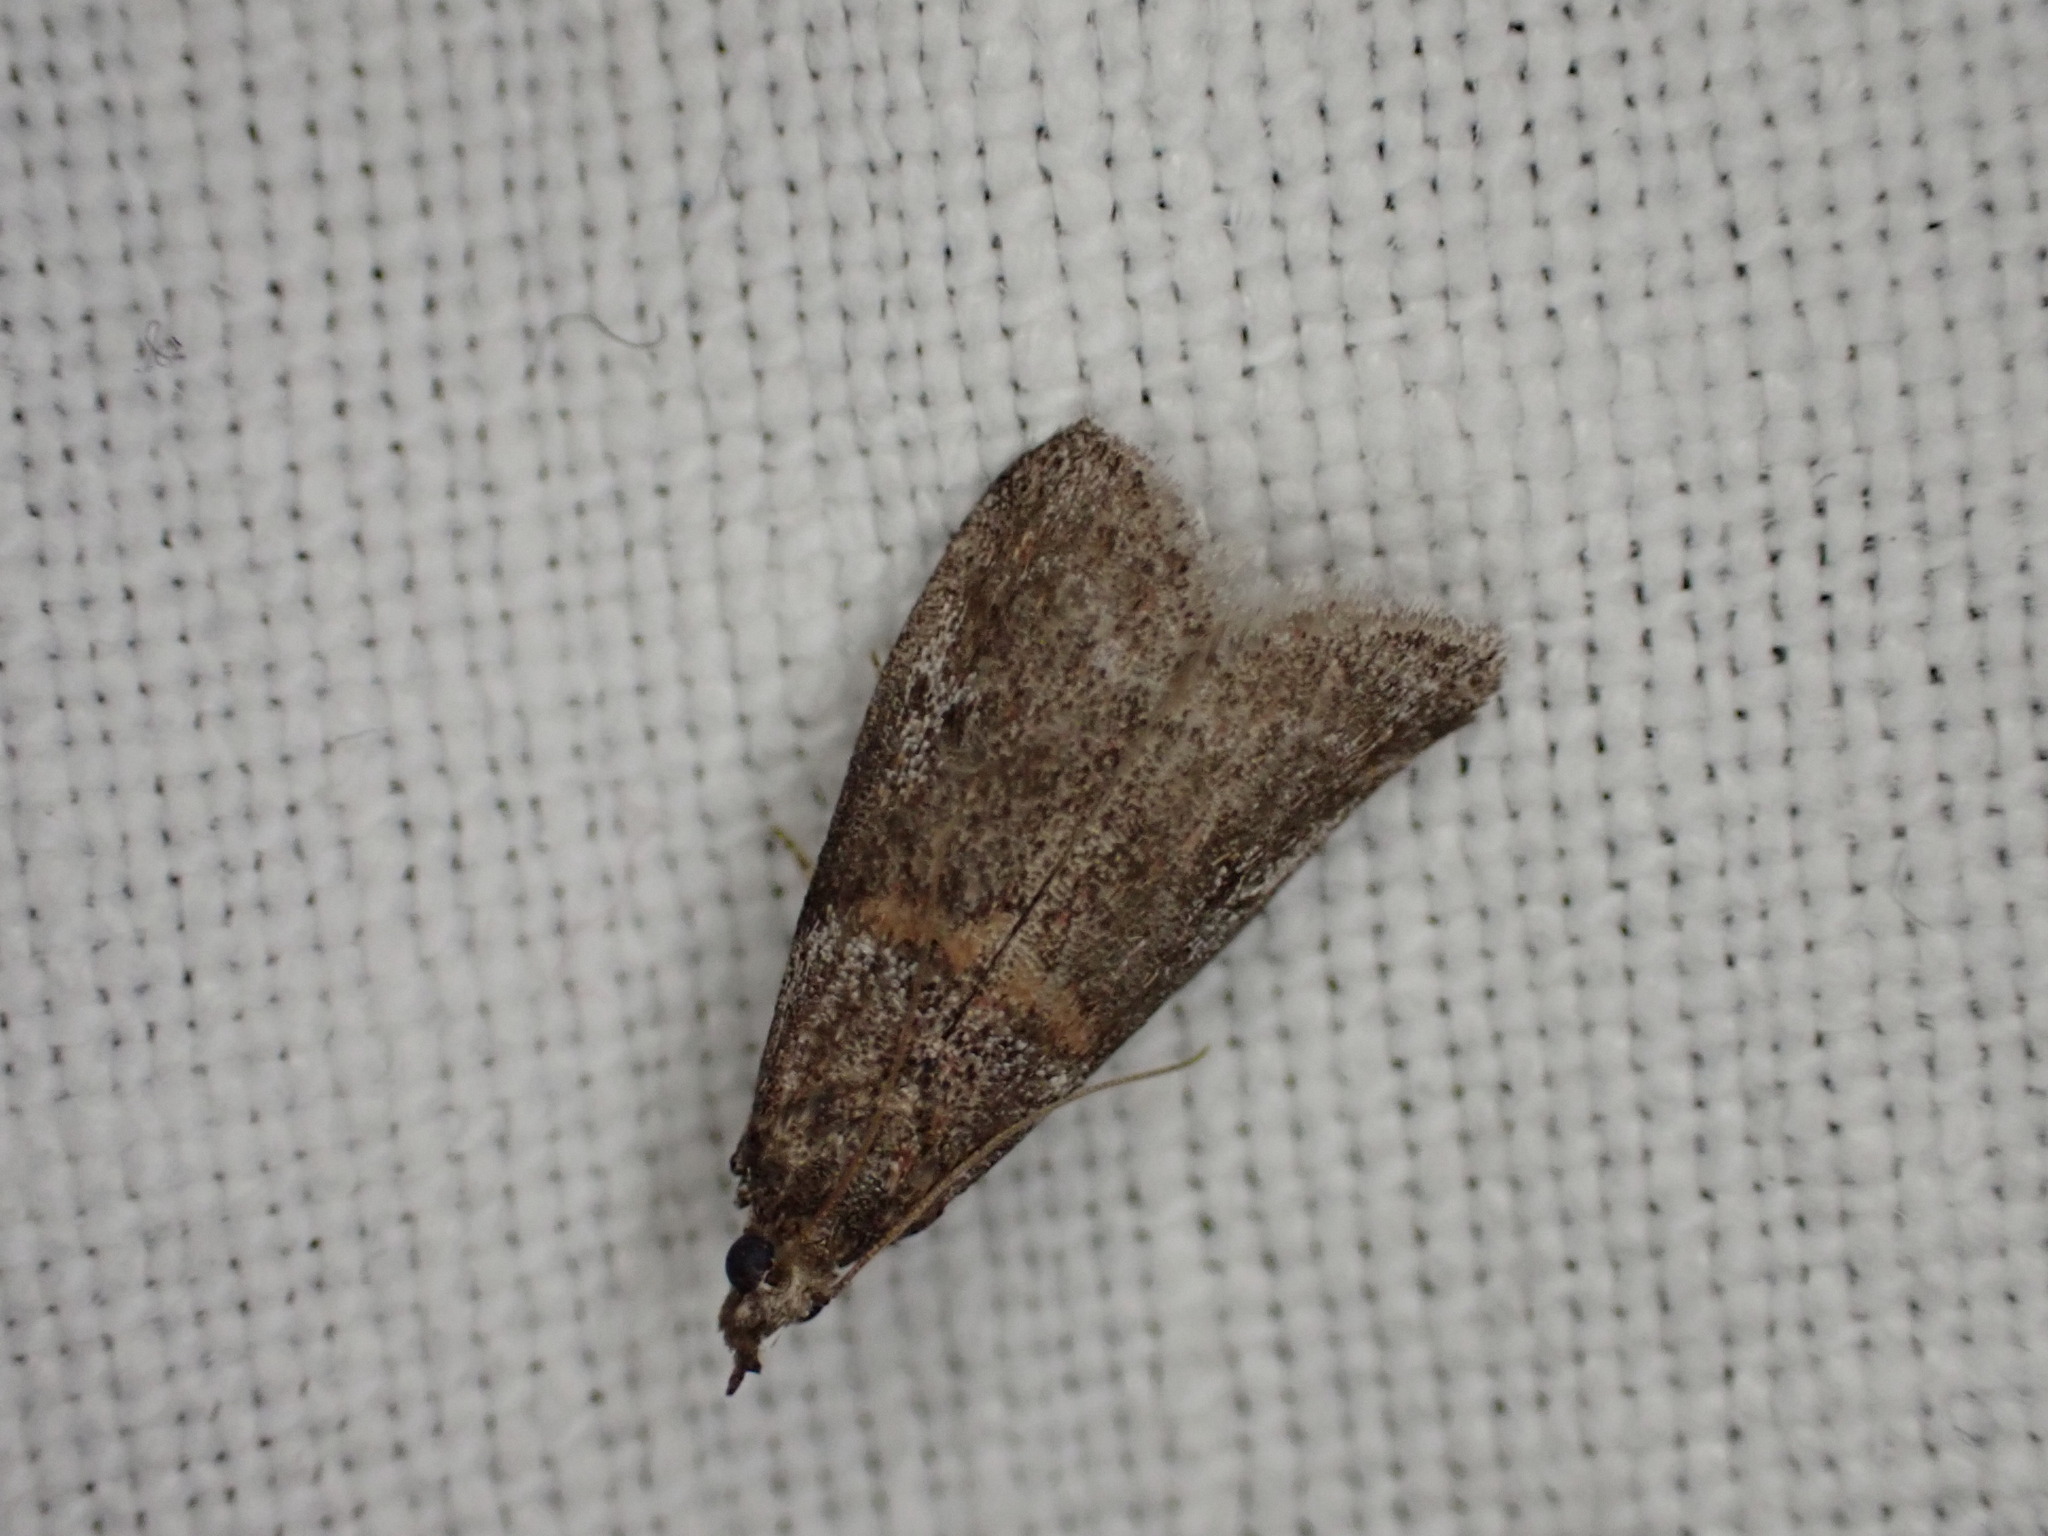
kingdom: Animalia
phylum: Arthropoda
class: Insecta
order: Lepidoptera
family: Pyralidae
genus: Acrobasis
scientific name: Acrobasis obliqua
